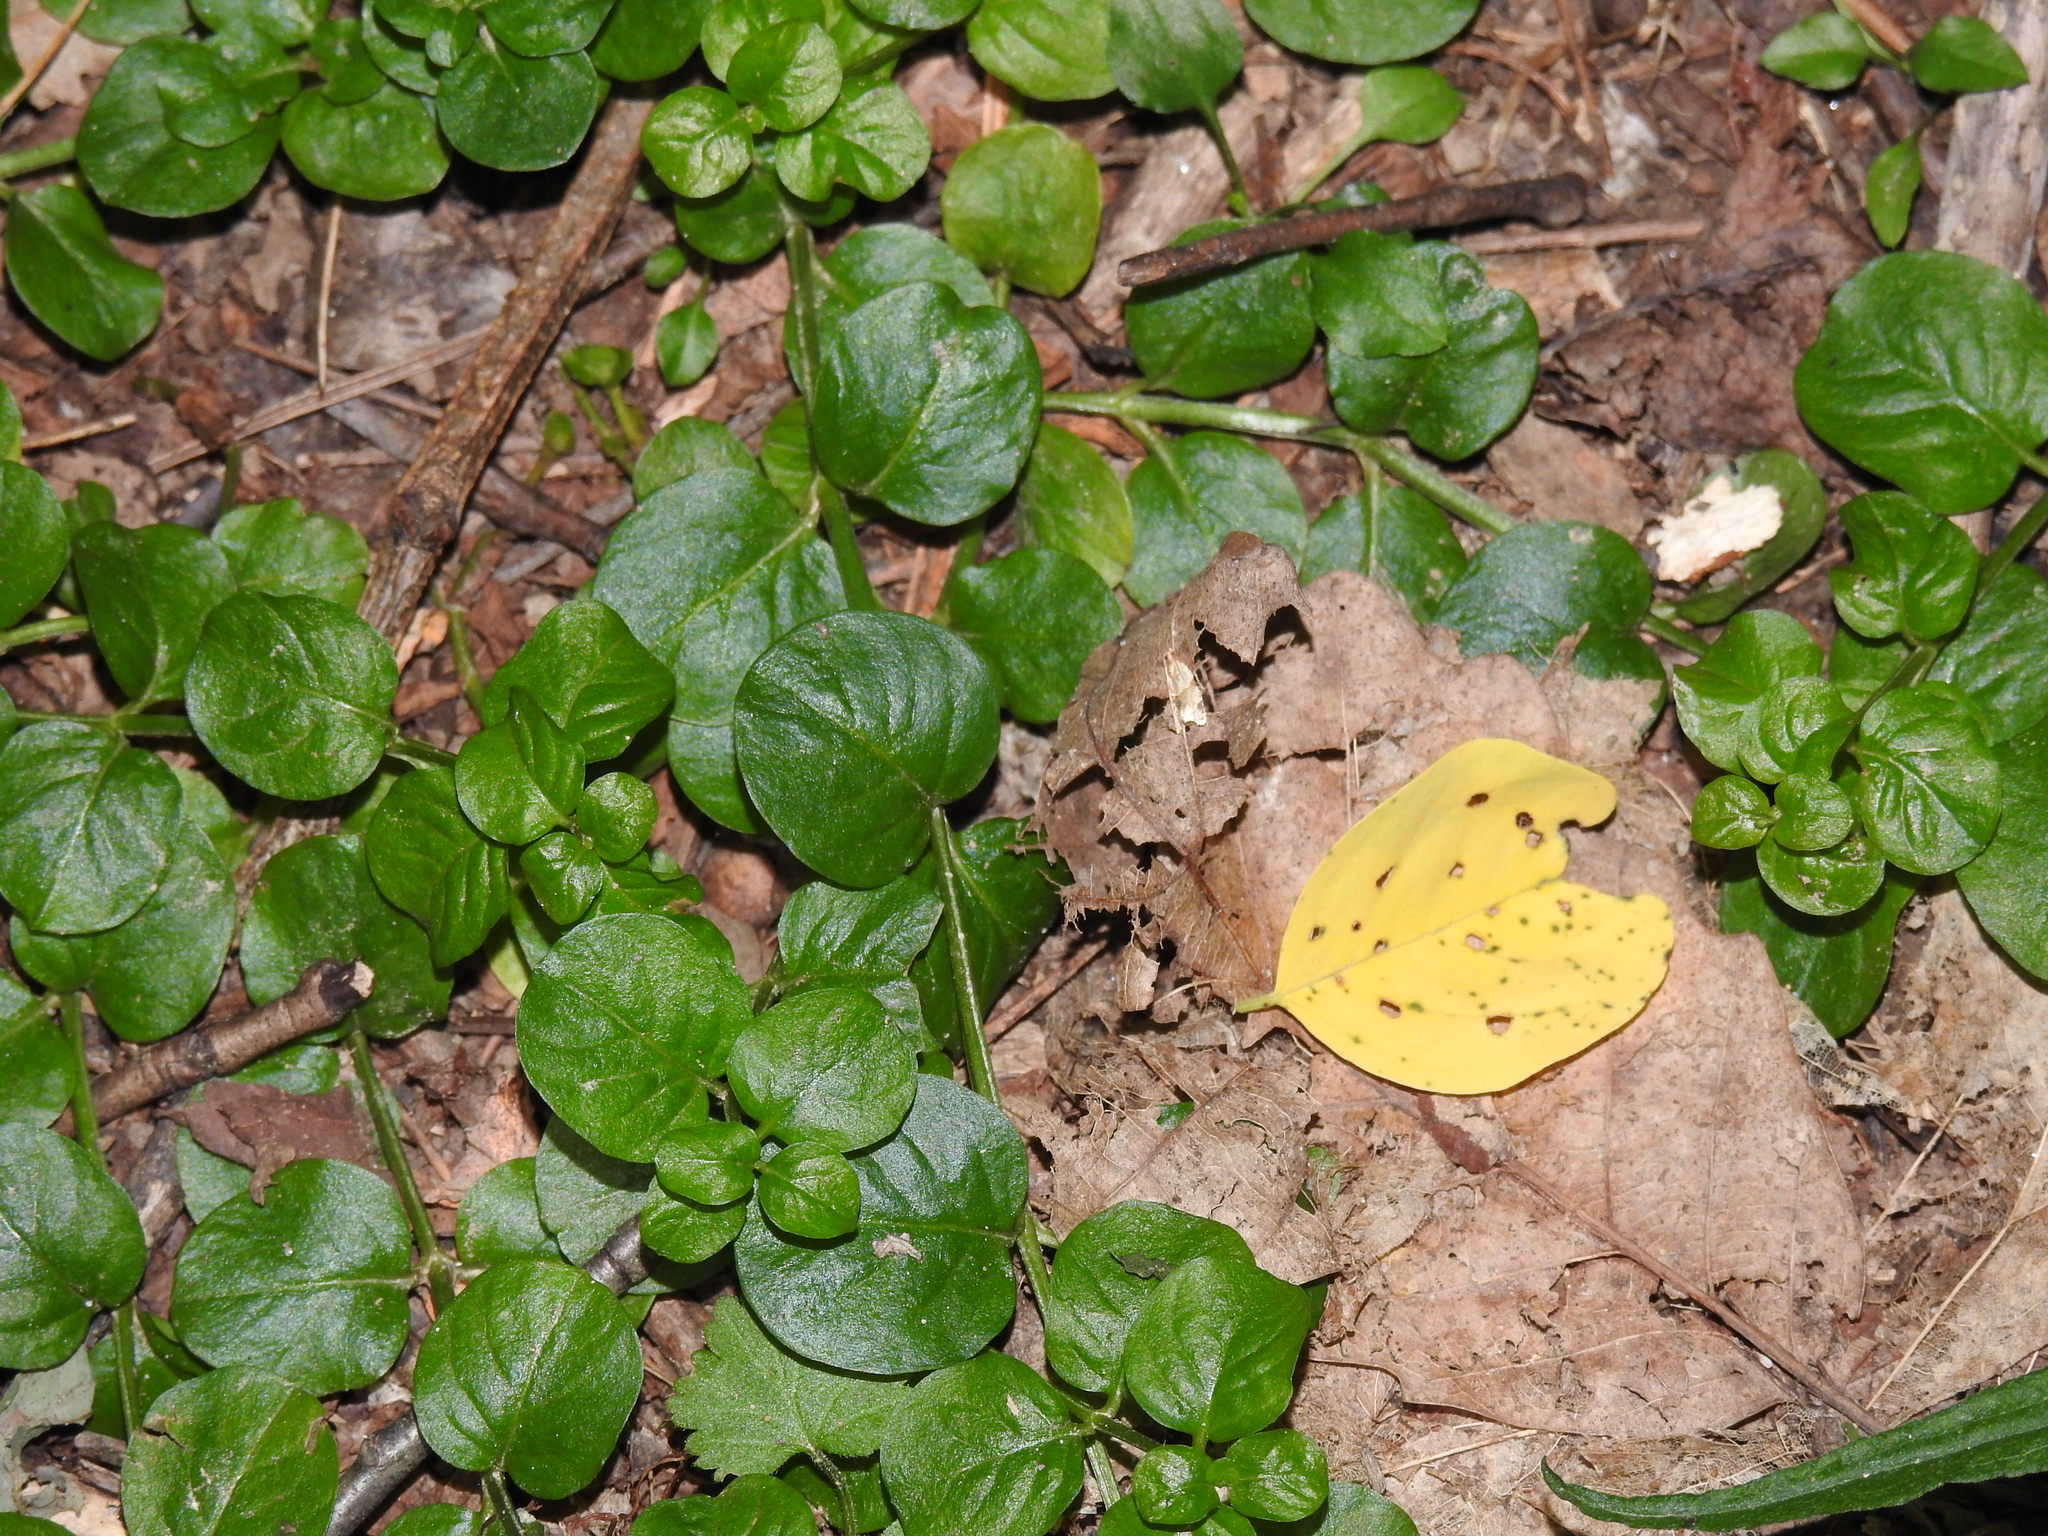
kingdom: Plantae
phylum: Tracheophyta
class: Magnoliopsida
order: Ericales
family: Primulaceae
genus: Lysimachia
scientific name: Lysimachia nummularia
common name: Moneywort
